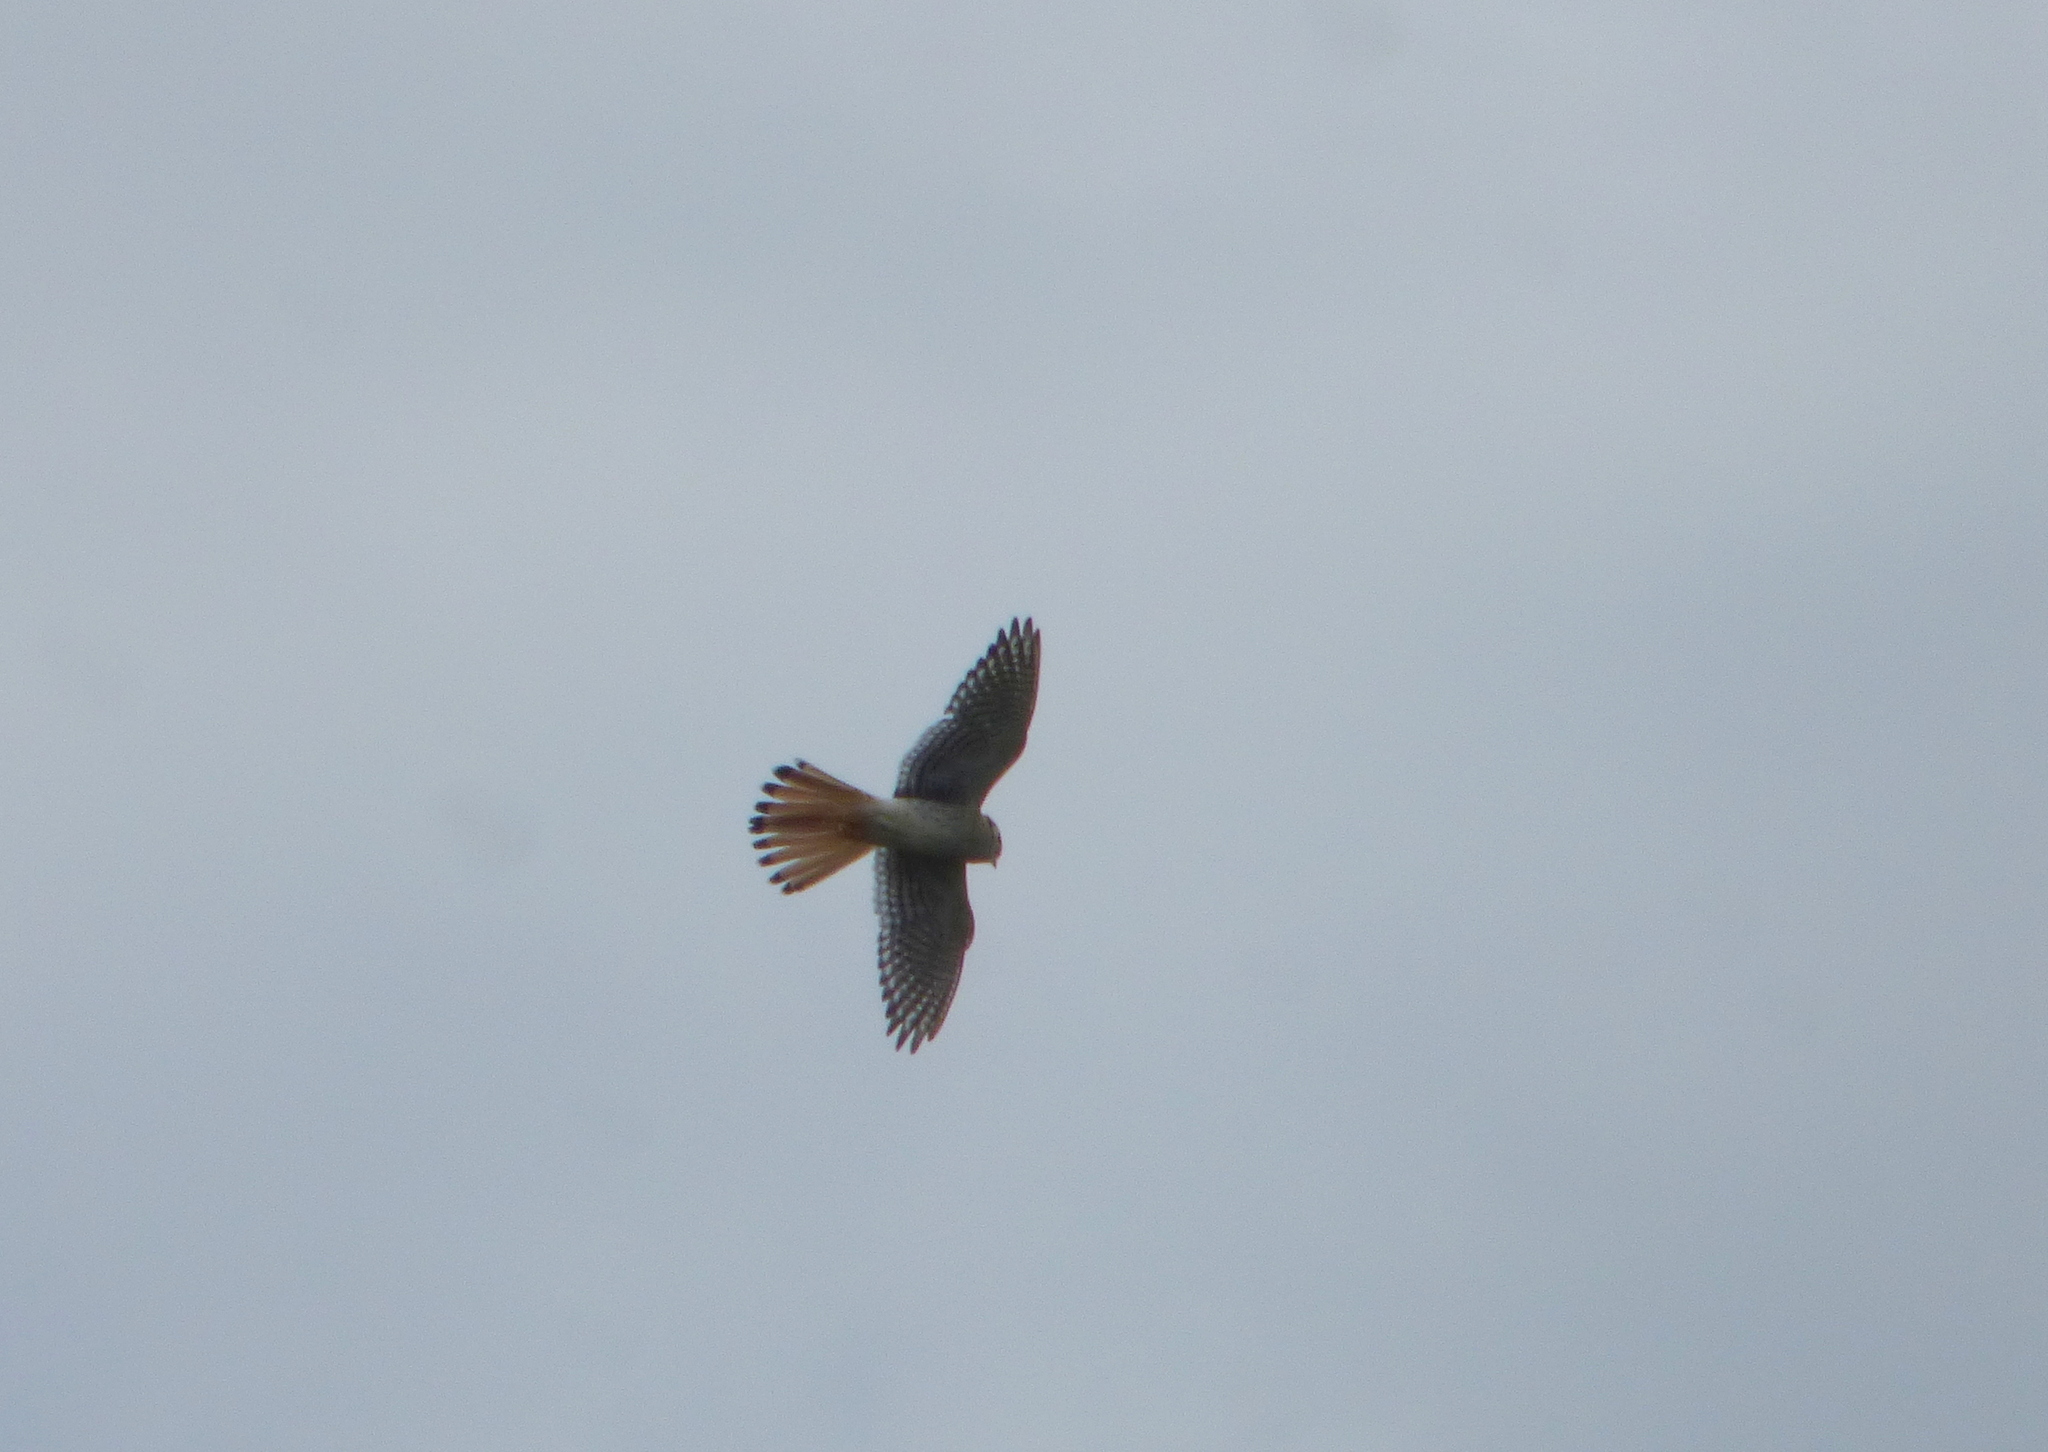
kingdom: Animalia
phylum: Chordata
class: Aves
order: Falconiformes
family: Falconidae
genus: Falco
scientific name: Falco sparverius
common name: American kestrel
